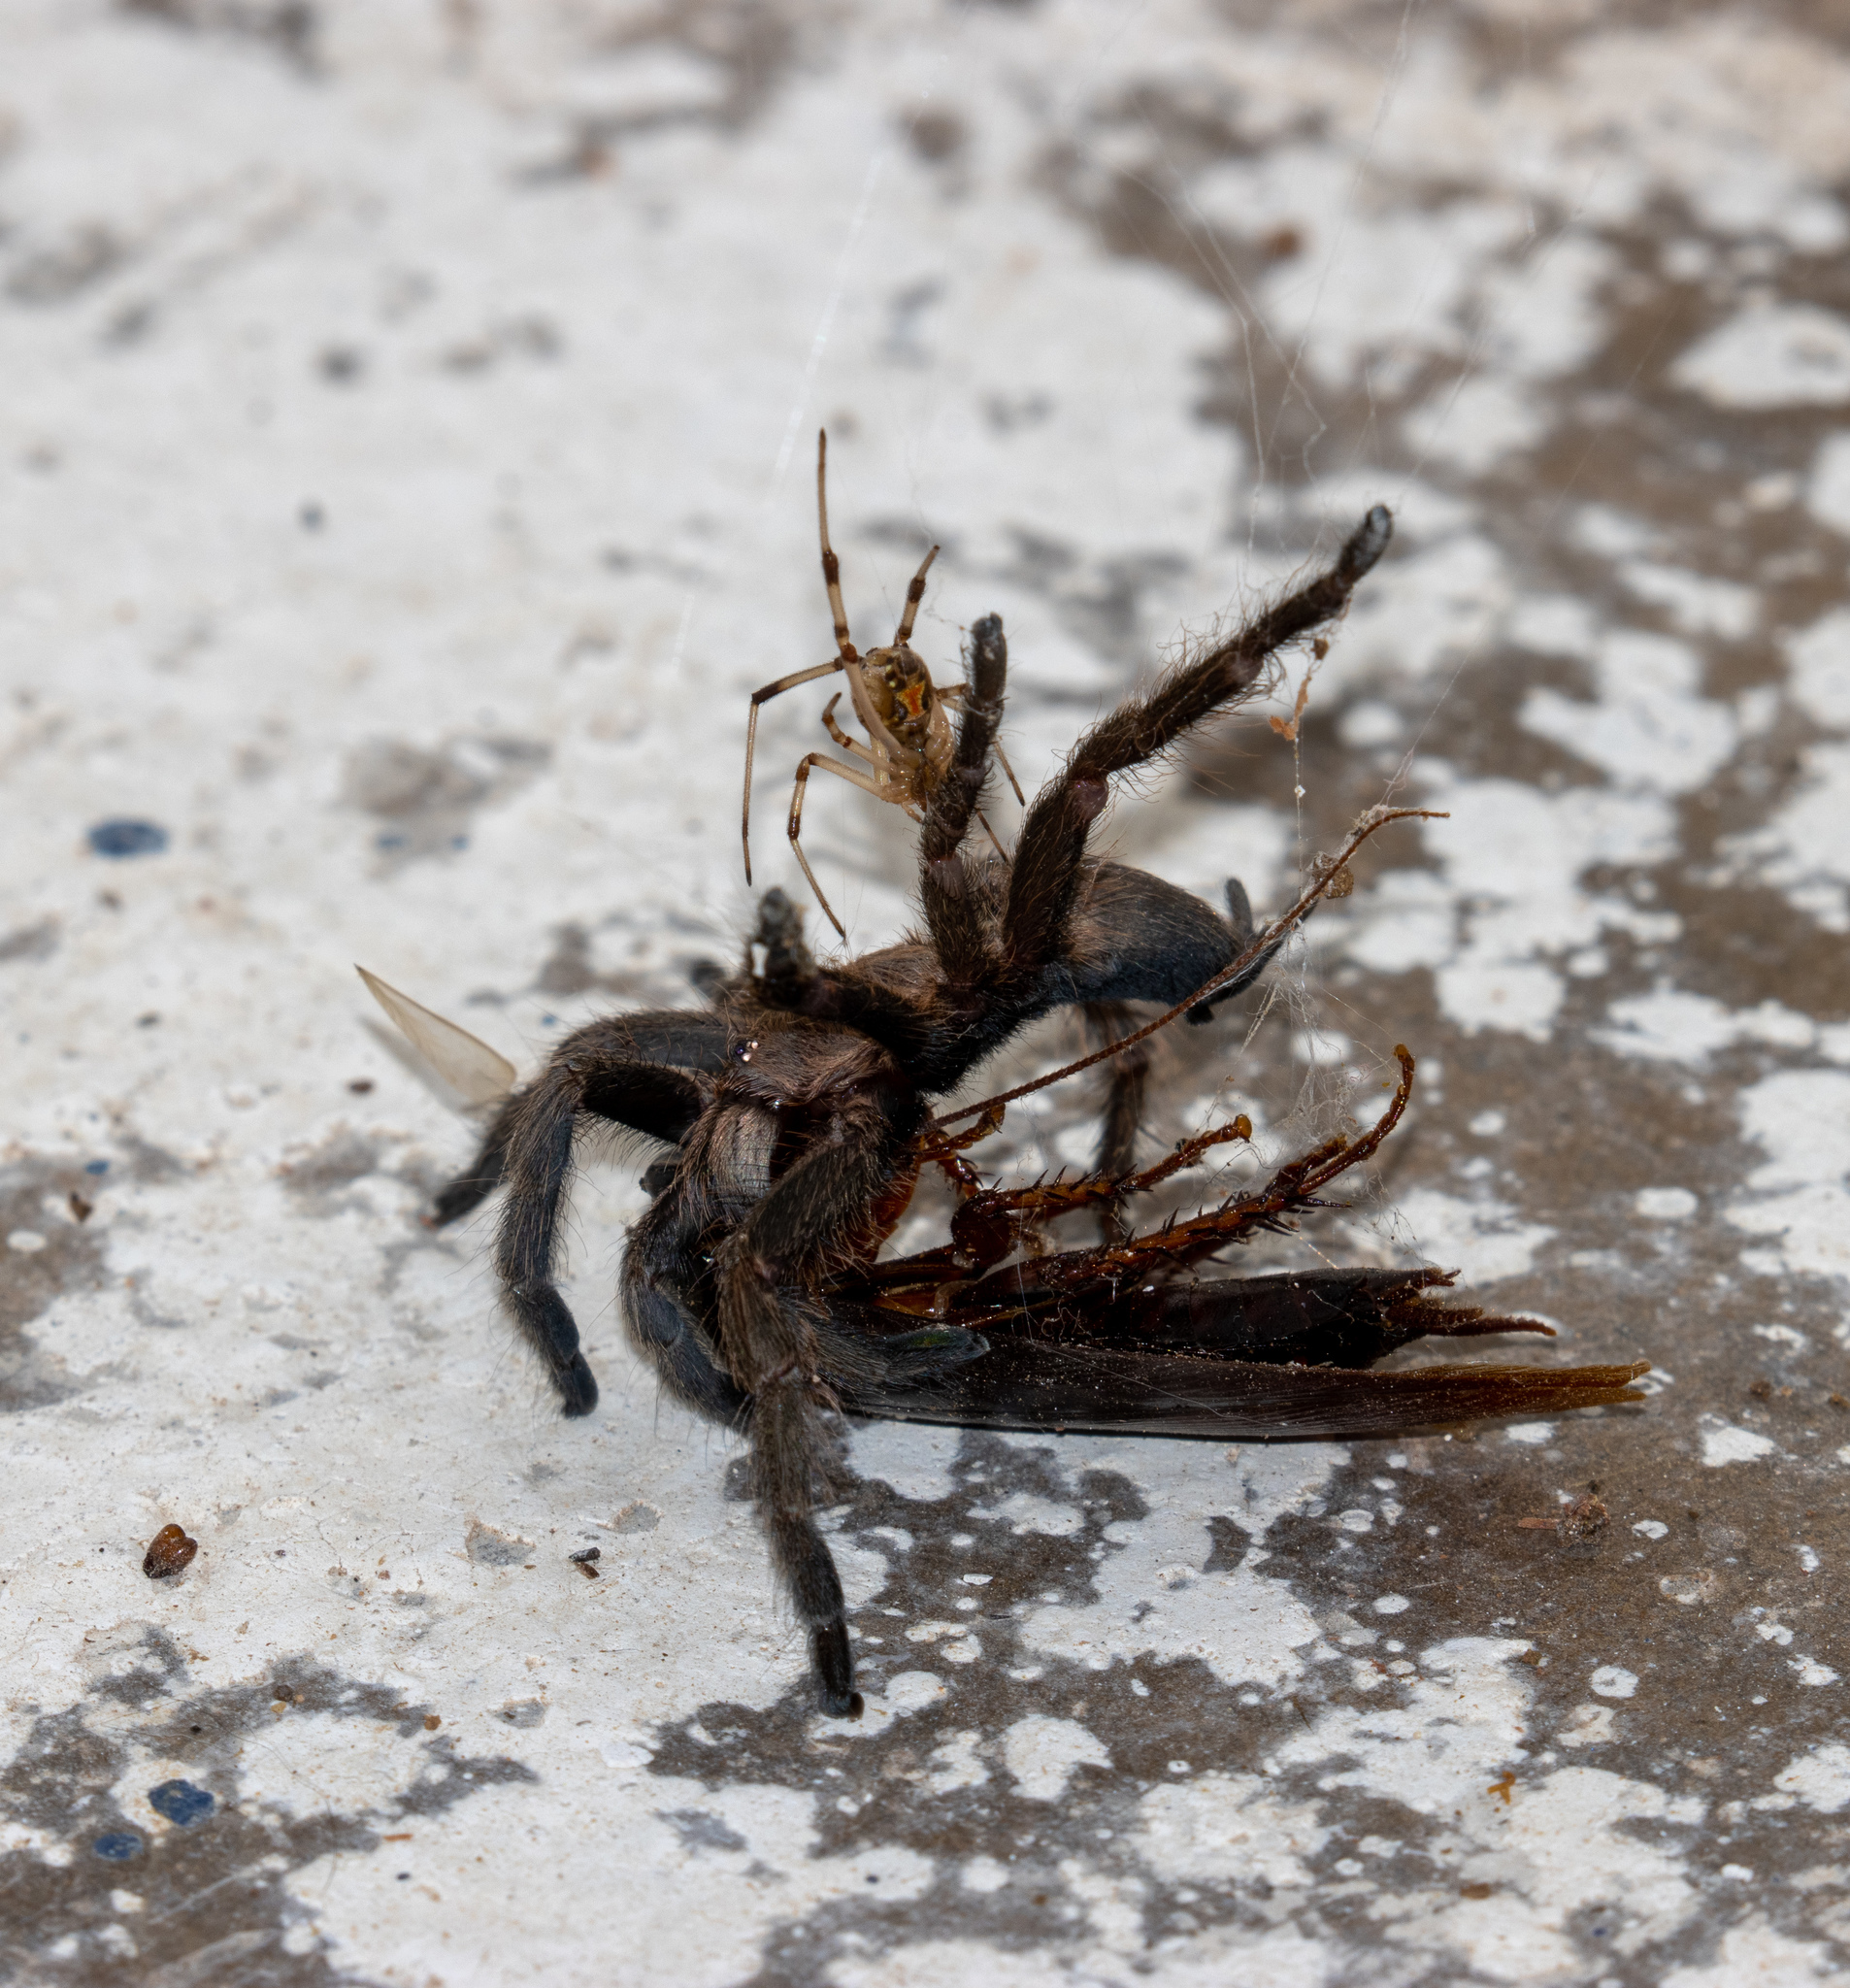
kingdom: Animalia
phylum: Arthropoda
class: Arachnida
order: Araneae
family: Theraphosidae
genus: Dolichothele
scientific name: Dolichothele exilis
